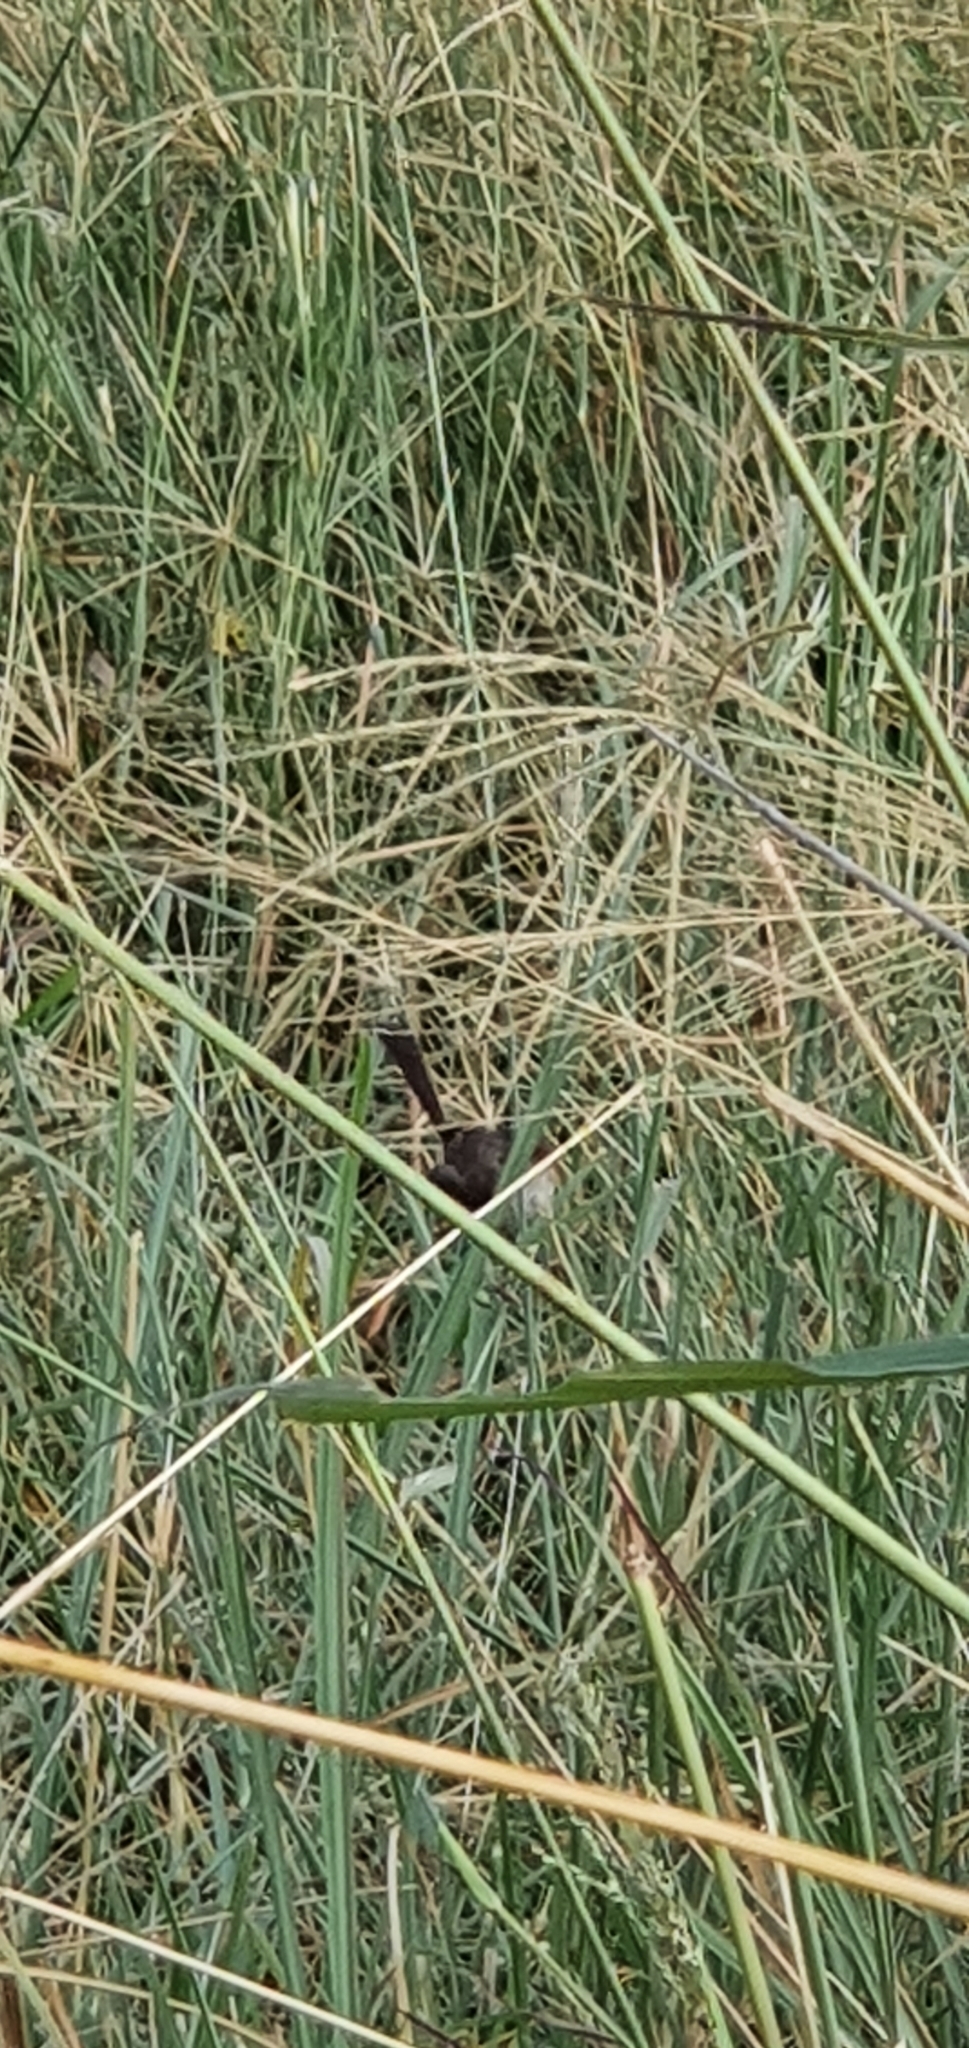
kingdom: Animalia
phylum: Chordata
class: Aves
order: Passeriformes
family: Maluridae
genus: Malurus
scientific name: Malurus melanocephalus
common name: Red-backed fairywren
